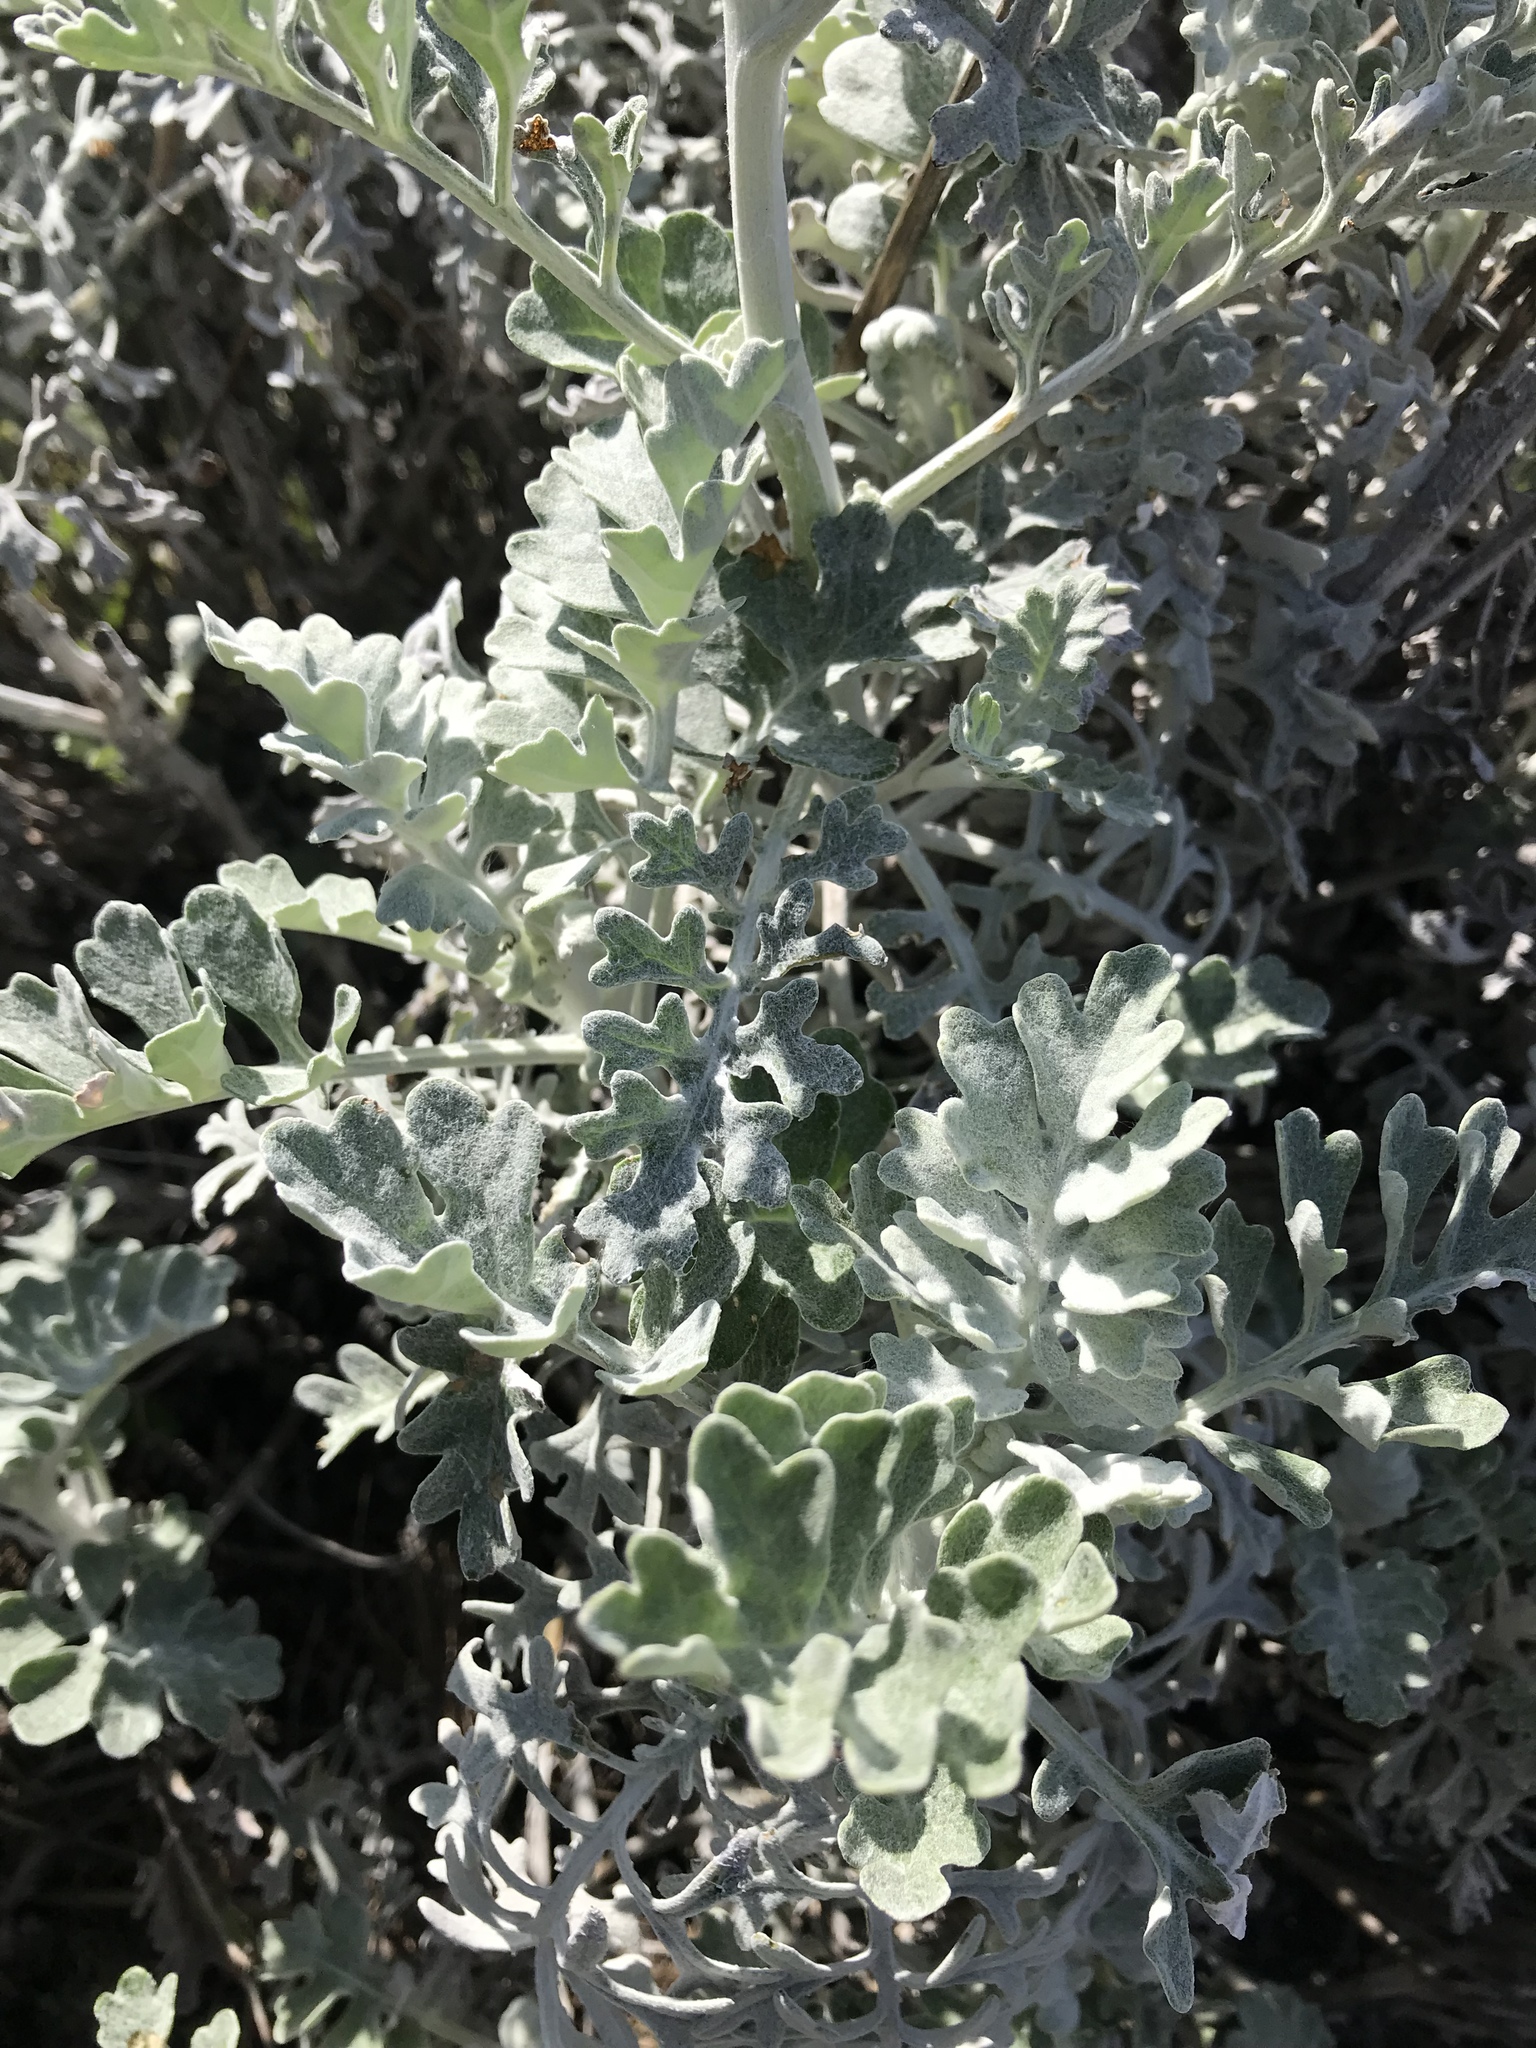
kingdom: Plantae
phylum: Tracheophyta
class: Magnoliopsida
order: Asterales
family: Asteraceae
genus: Jacobaea
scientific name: Jacobaea maritima
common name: Silver ragwort
